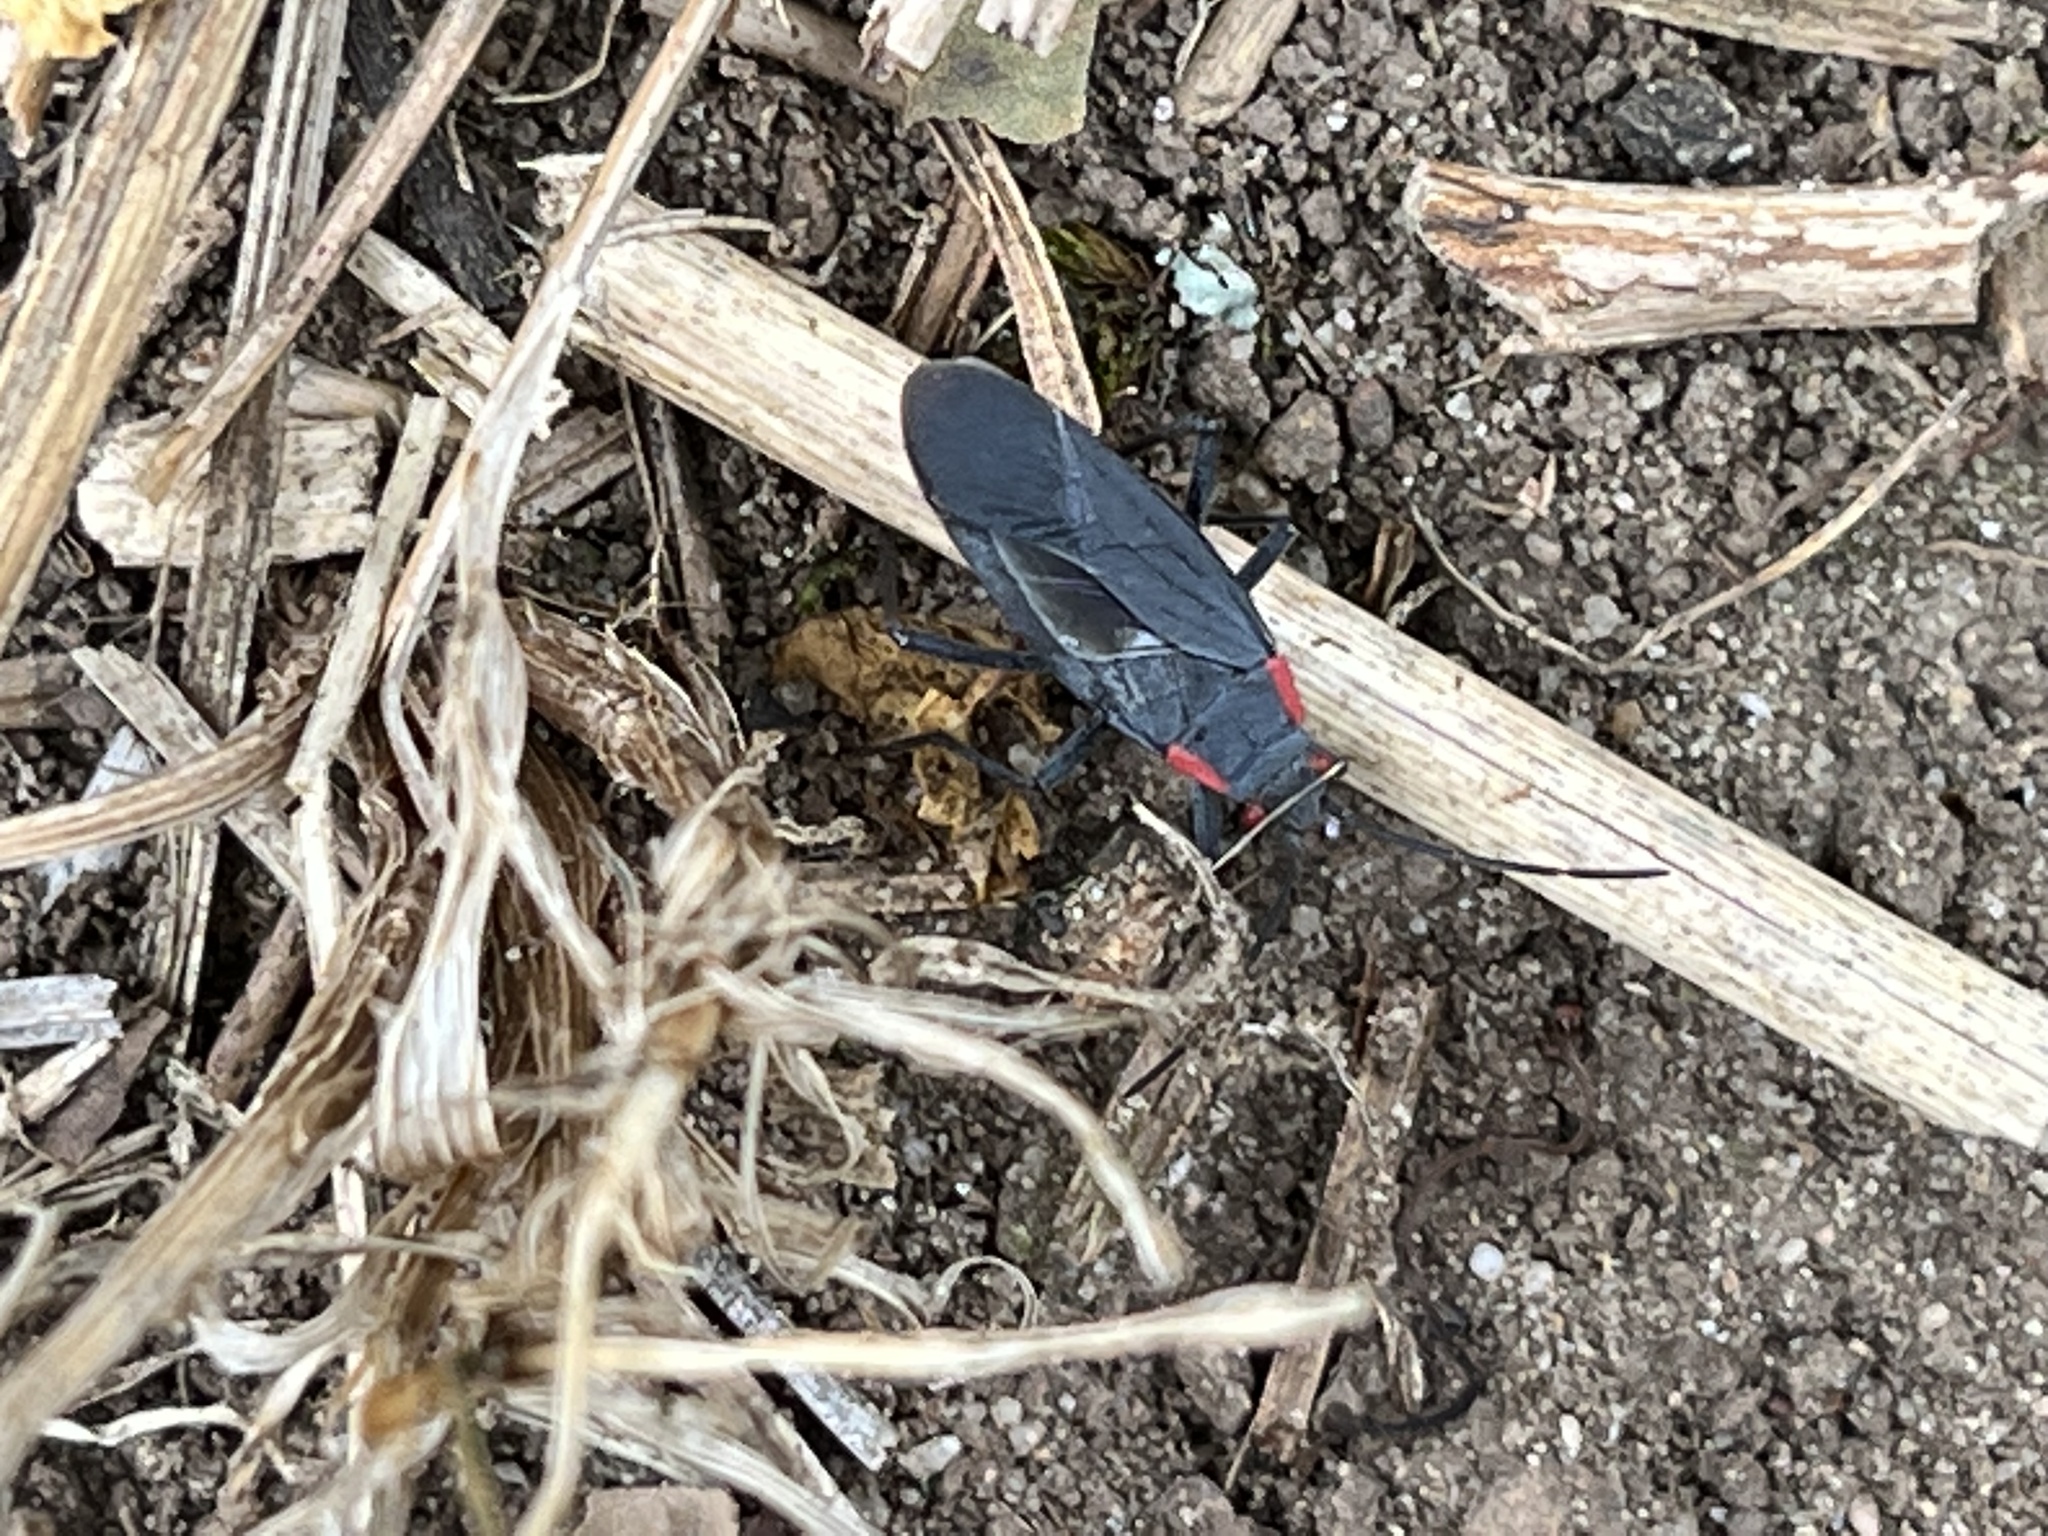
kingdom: Animalia
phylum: Arthropoda
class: Insecta
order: Hemiptera
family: Rhopalidae
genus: Jadera
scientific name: Jadera haematoloma
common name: Red-shouldered bug
